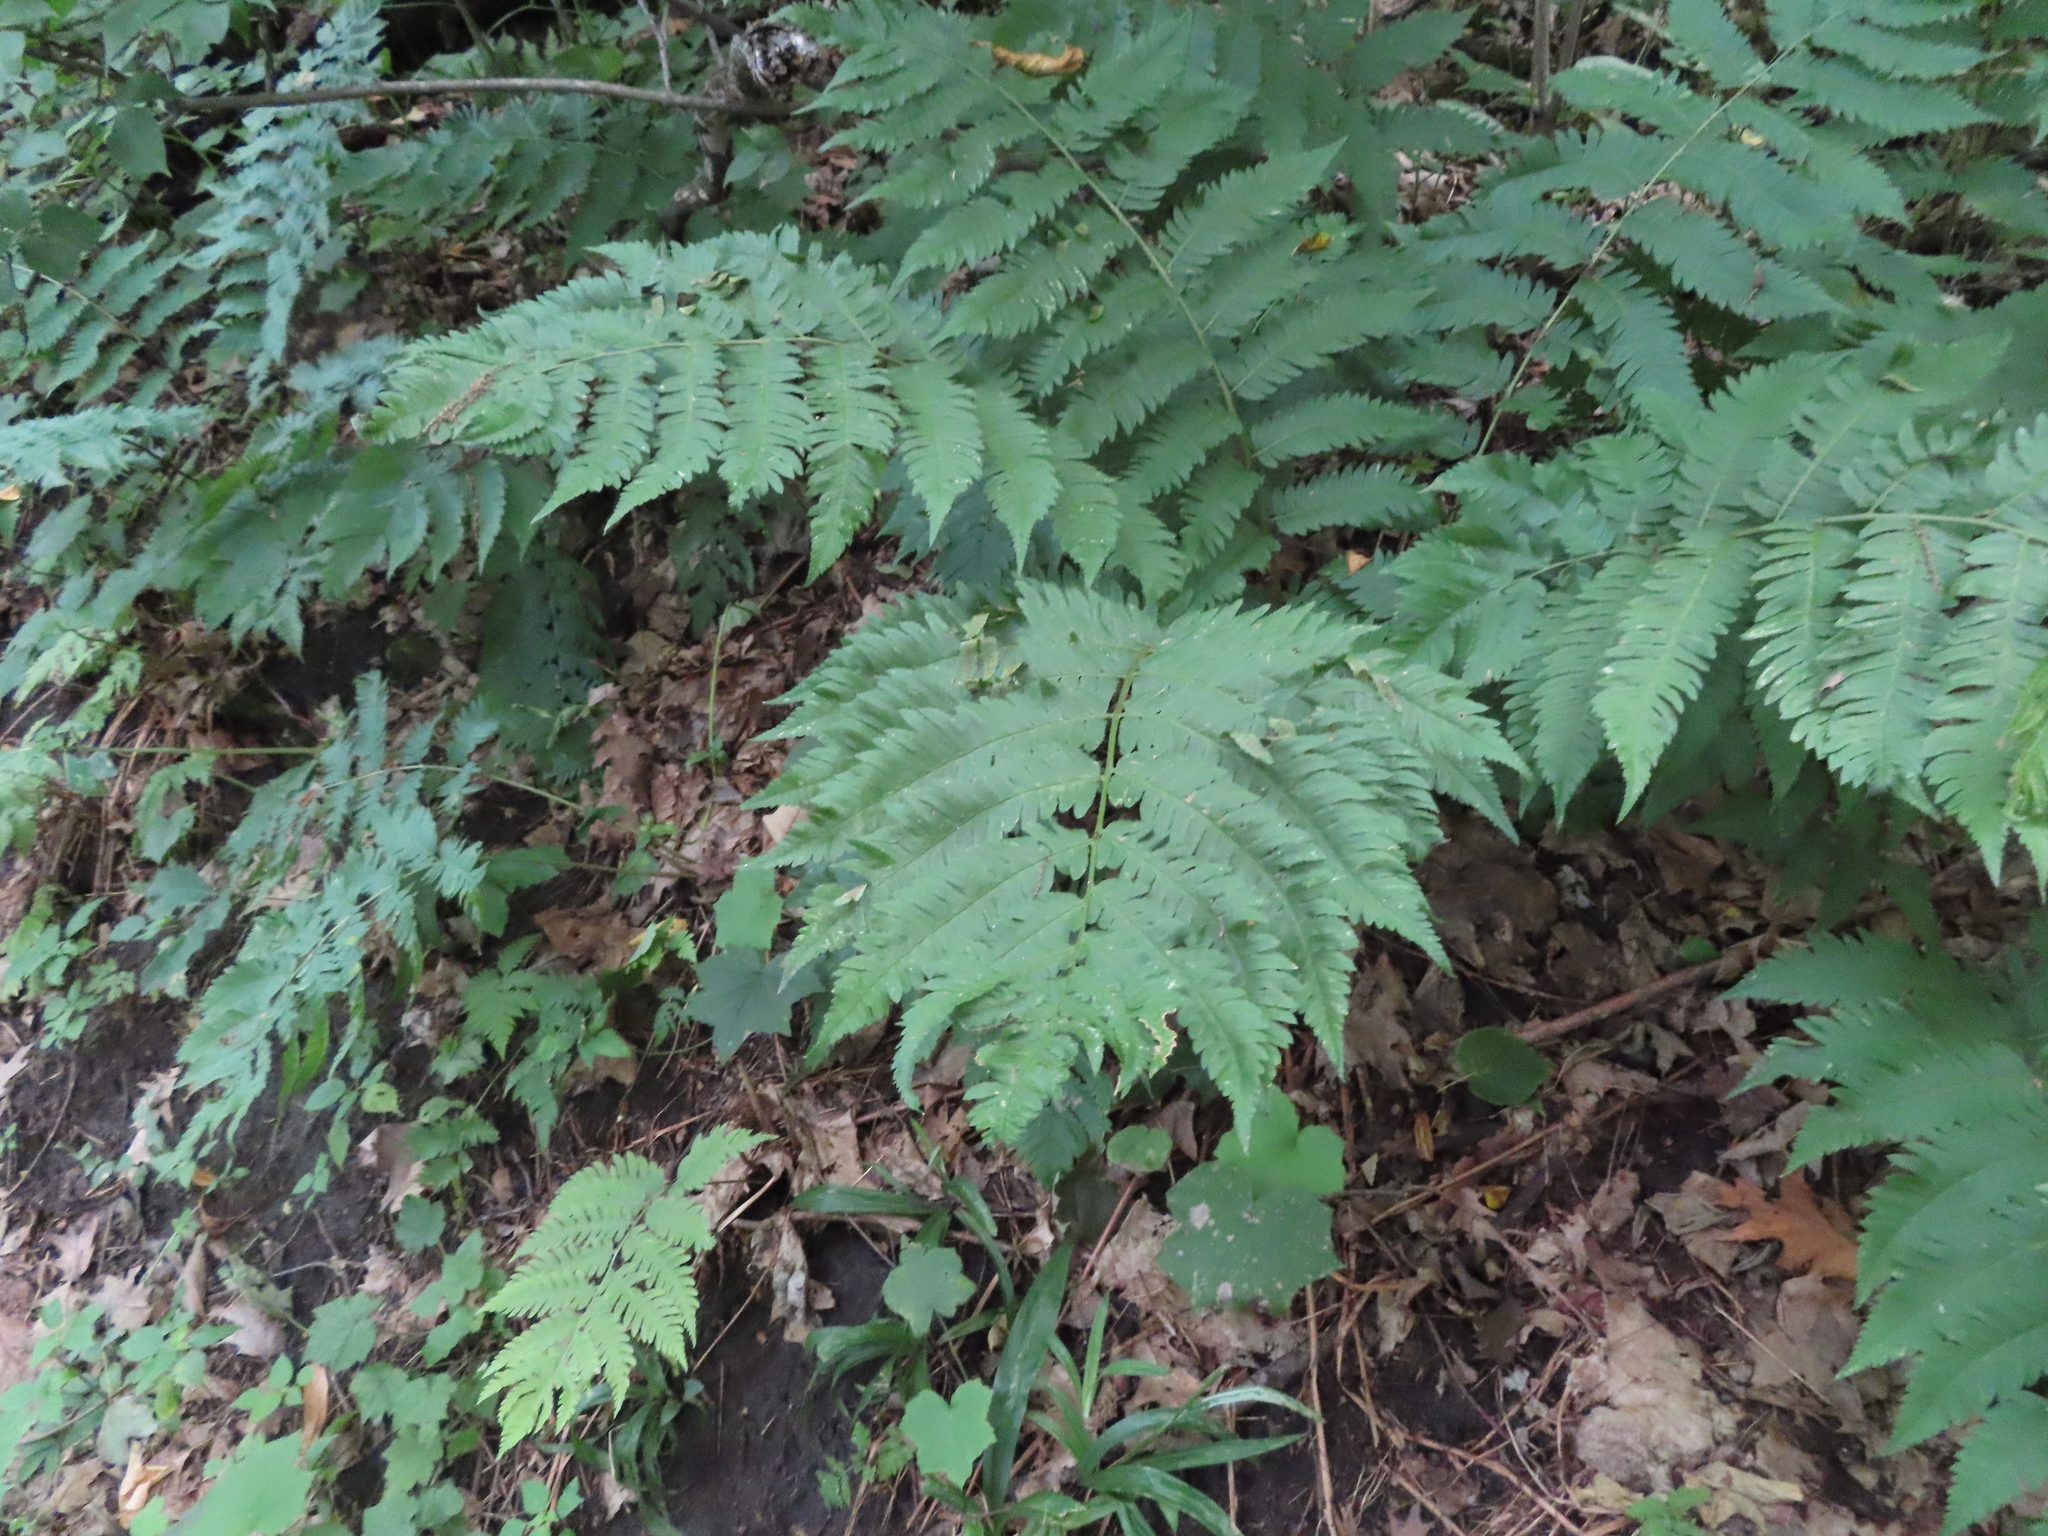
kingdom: Plantae
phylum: Tracheophyta
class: Polypodiopsida
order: Polypodiales
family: Dryopteridaceae
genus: Dryopteris
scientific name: Dryopteris goldieana
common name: Goldie's fern
